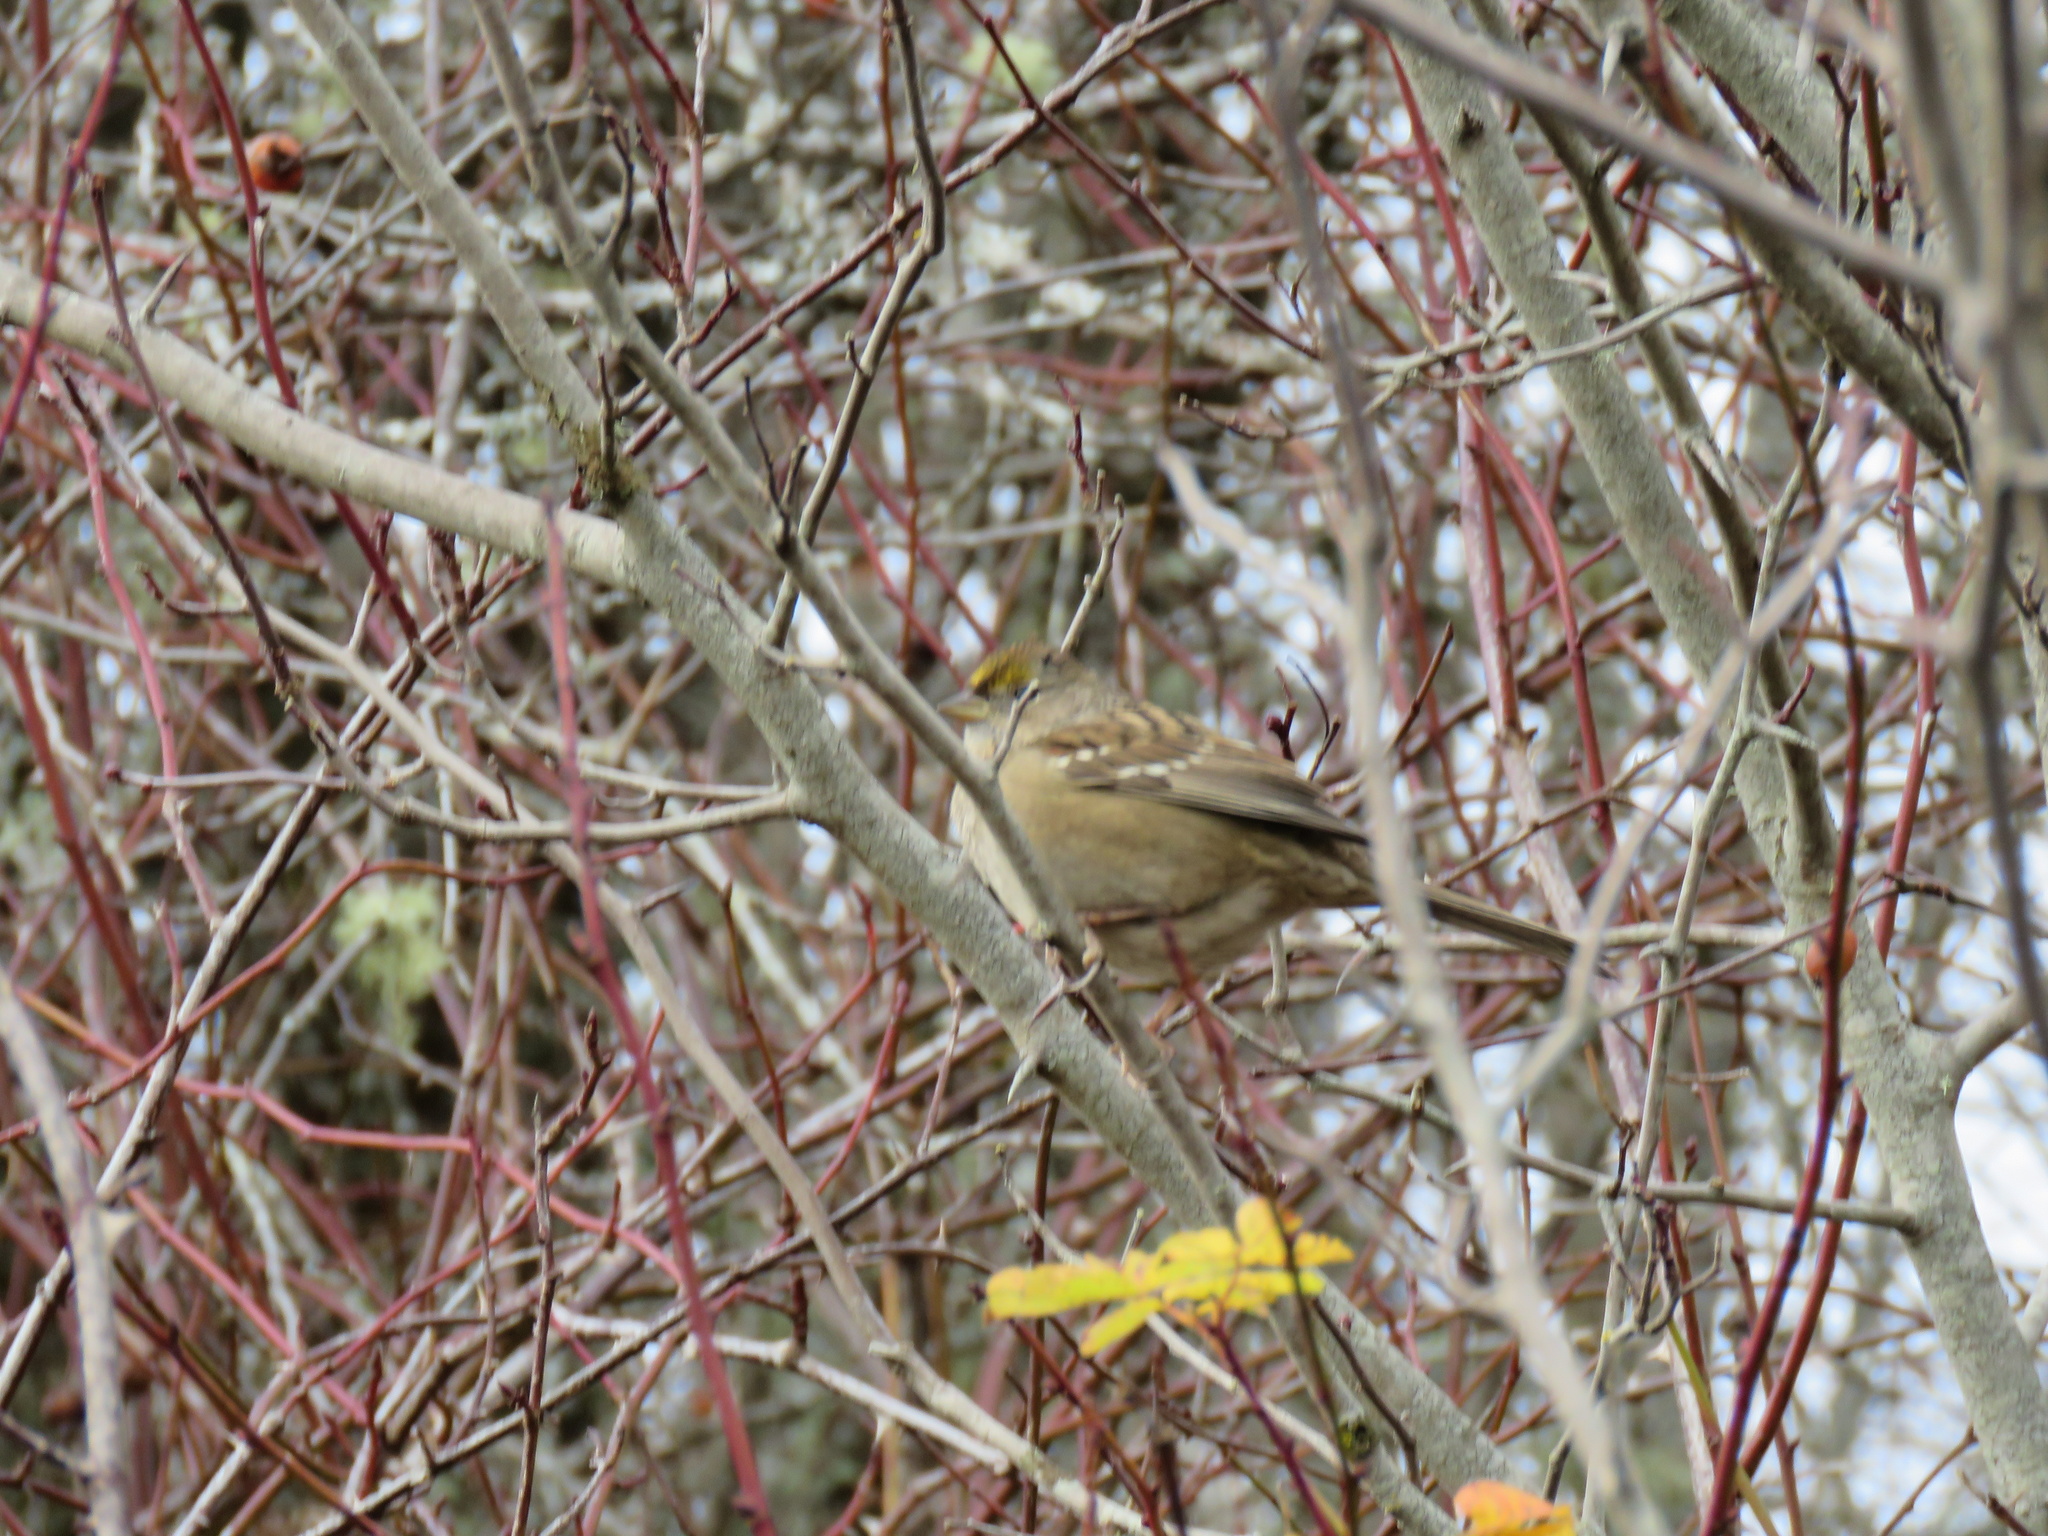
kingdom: Animalia
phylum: Chordata
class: Aves
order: Passeriformes
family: Passerellidae
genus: Zonotrichia
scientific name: Zonotrichia atricapilla
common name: Golden-crowned sparrow
